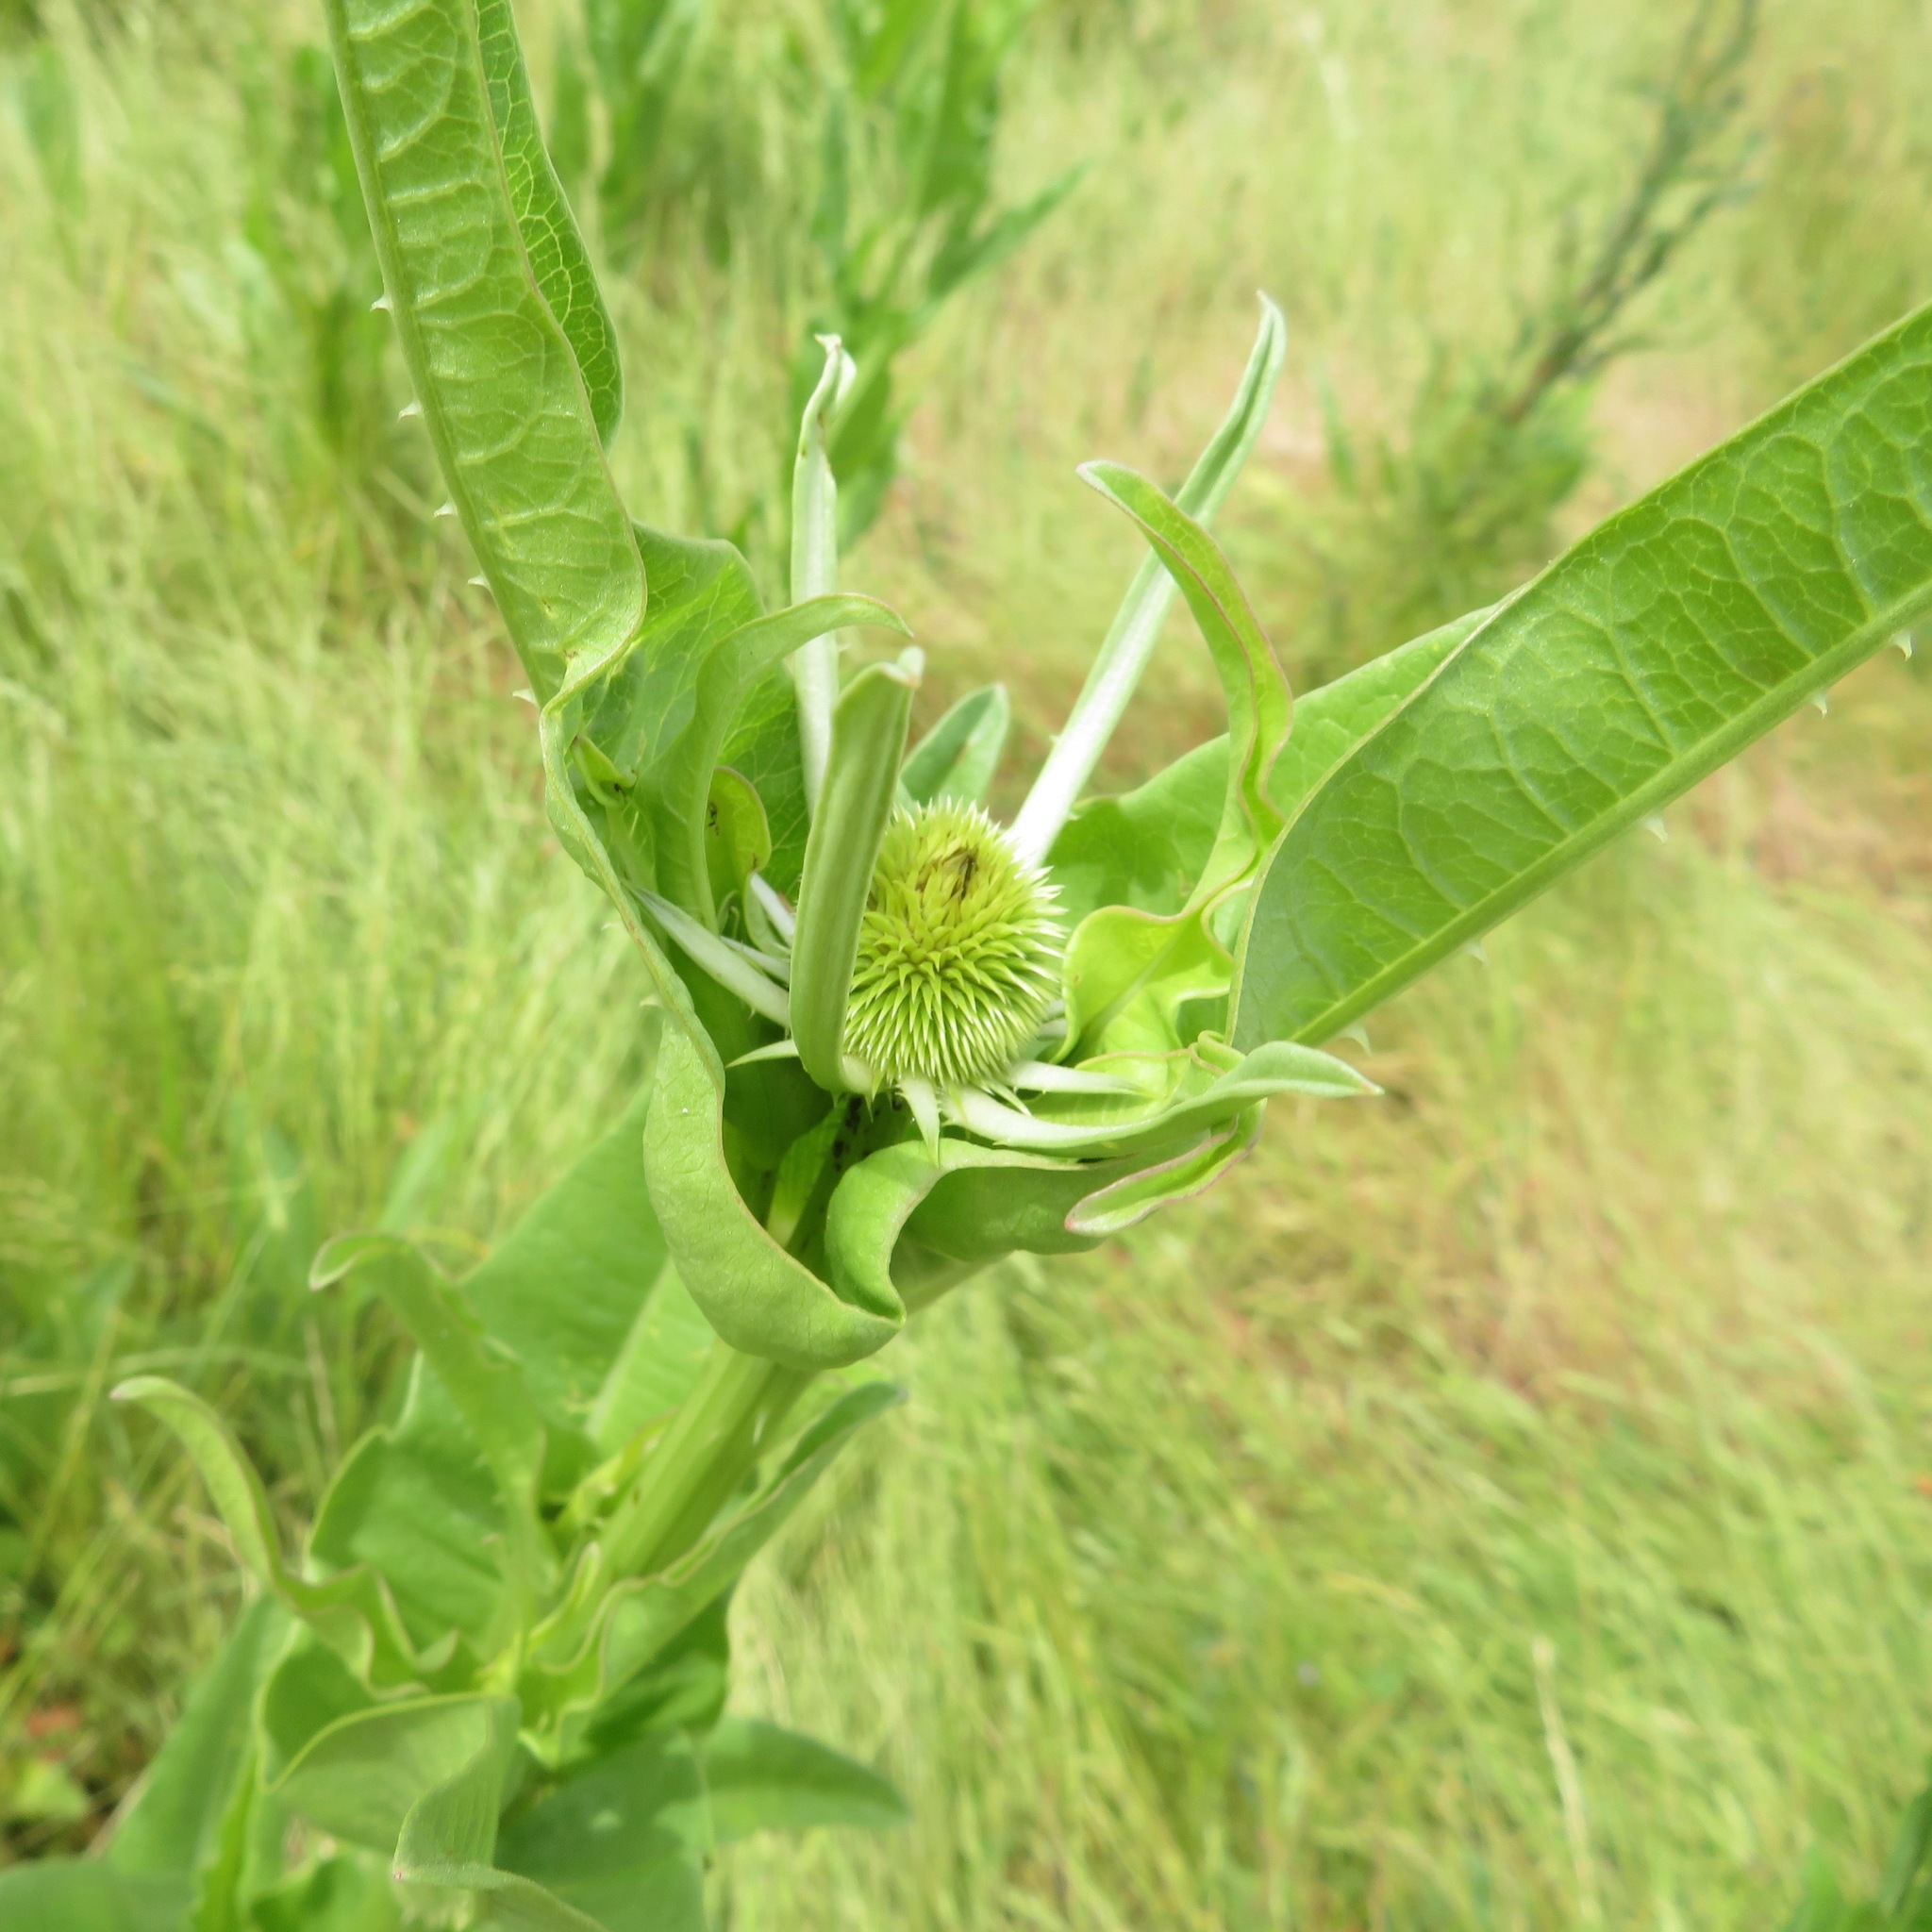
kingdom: Plantae
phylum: Tracheophyta
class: Magnoliopsida
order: Dipsacales
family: Caprifoliaceae
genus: Dipsacus
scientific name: Dipsacus sativus
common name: Fuller's teasel
